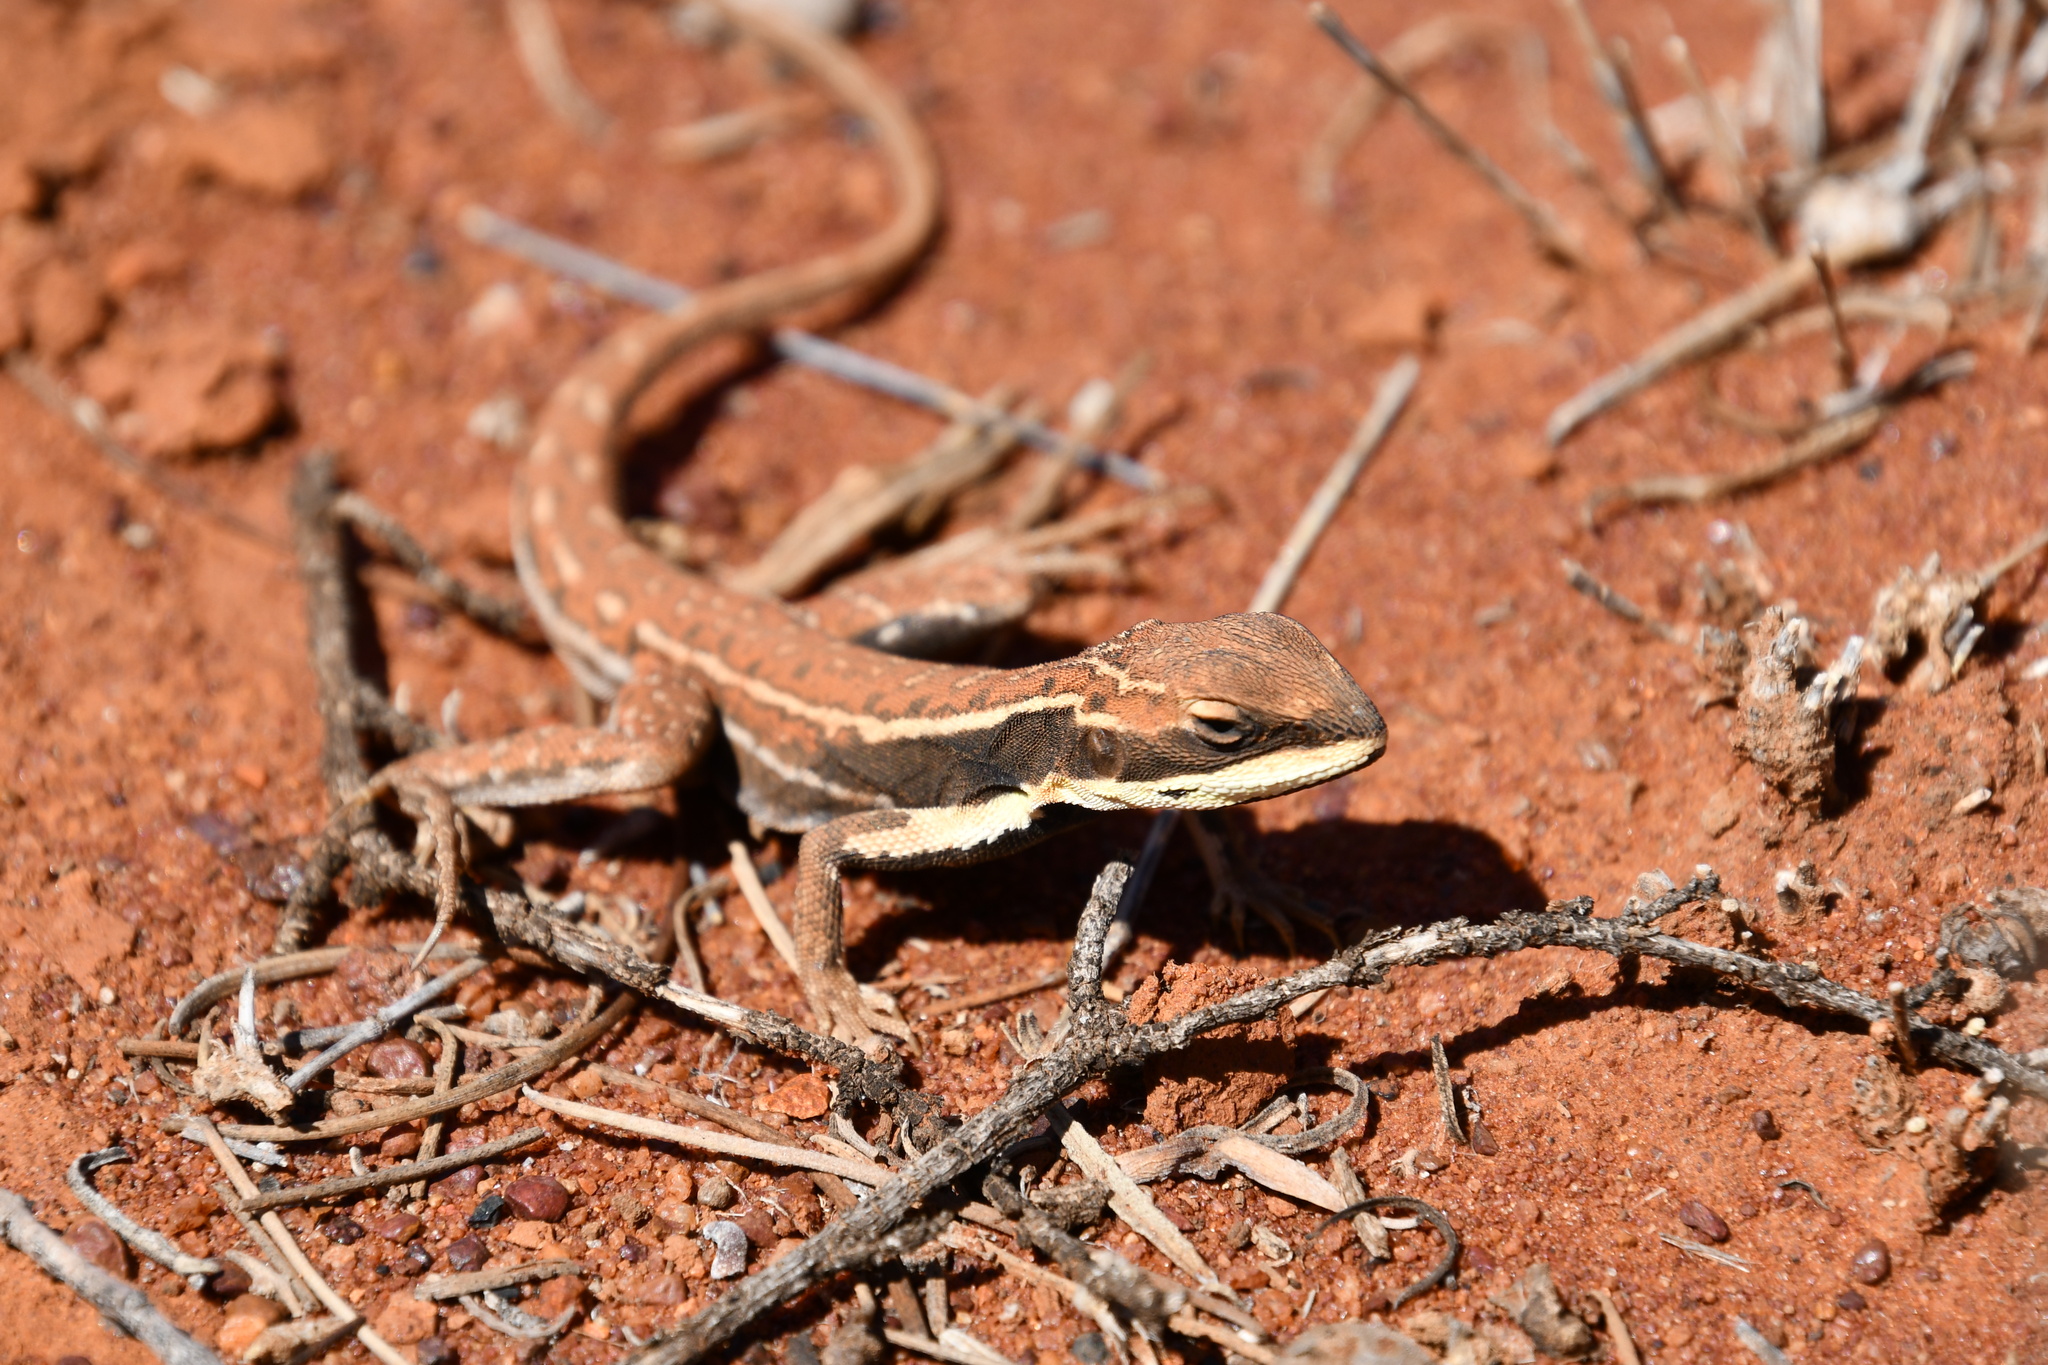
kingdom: Animalia
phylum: Chordata
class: Squamata
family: Agamidae
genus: Ctenophorus
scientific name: Ctenophorus isolepis
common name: Military dragon
